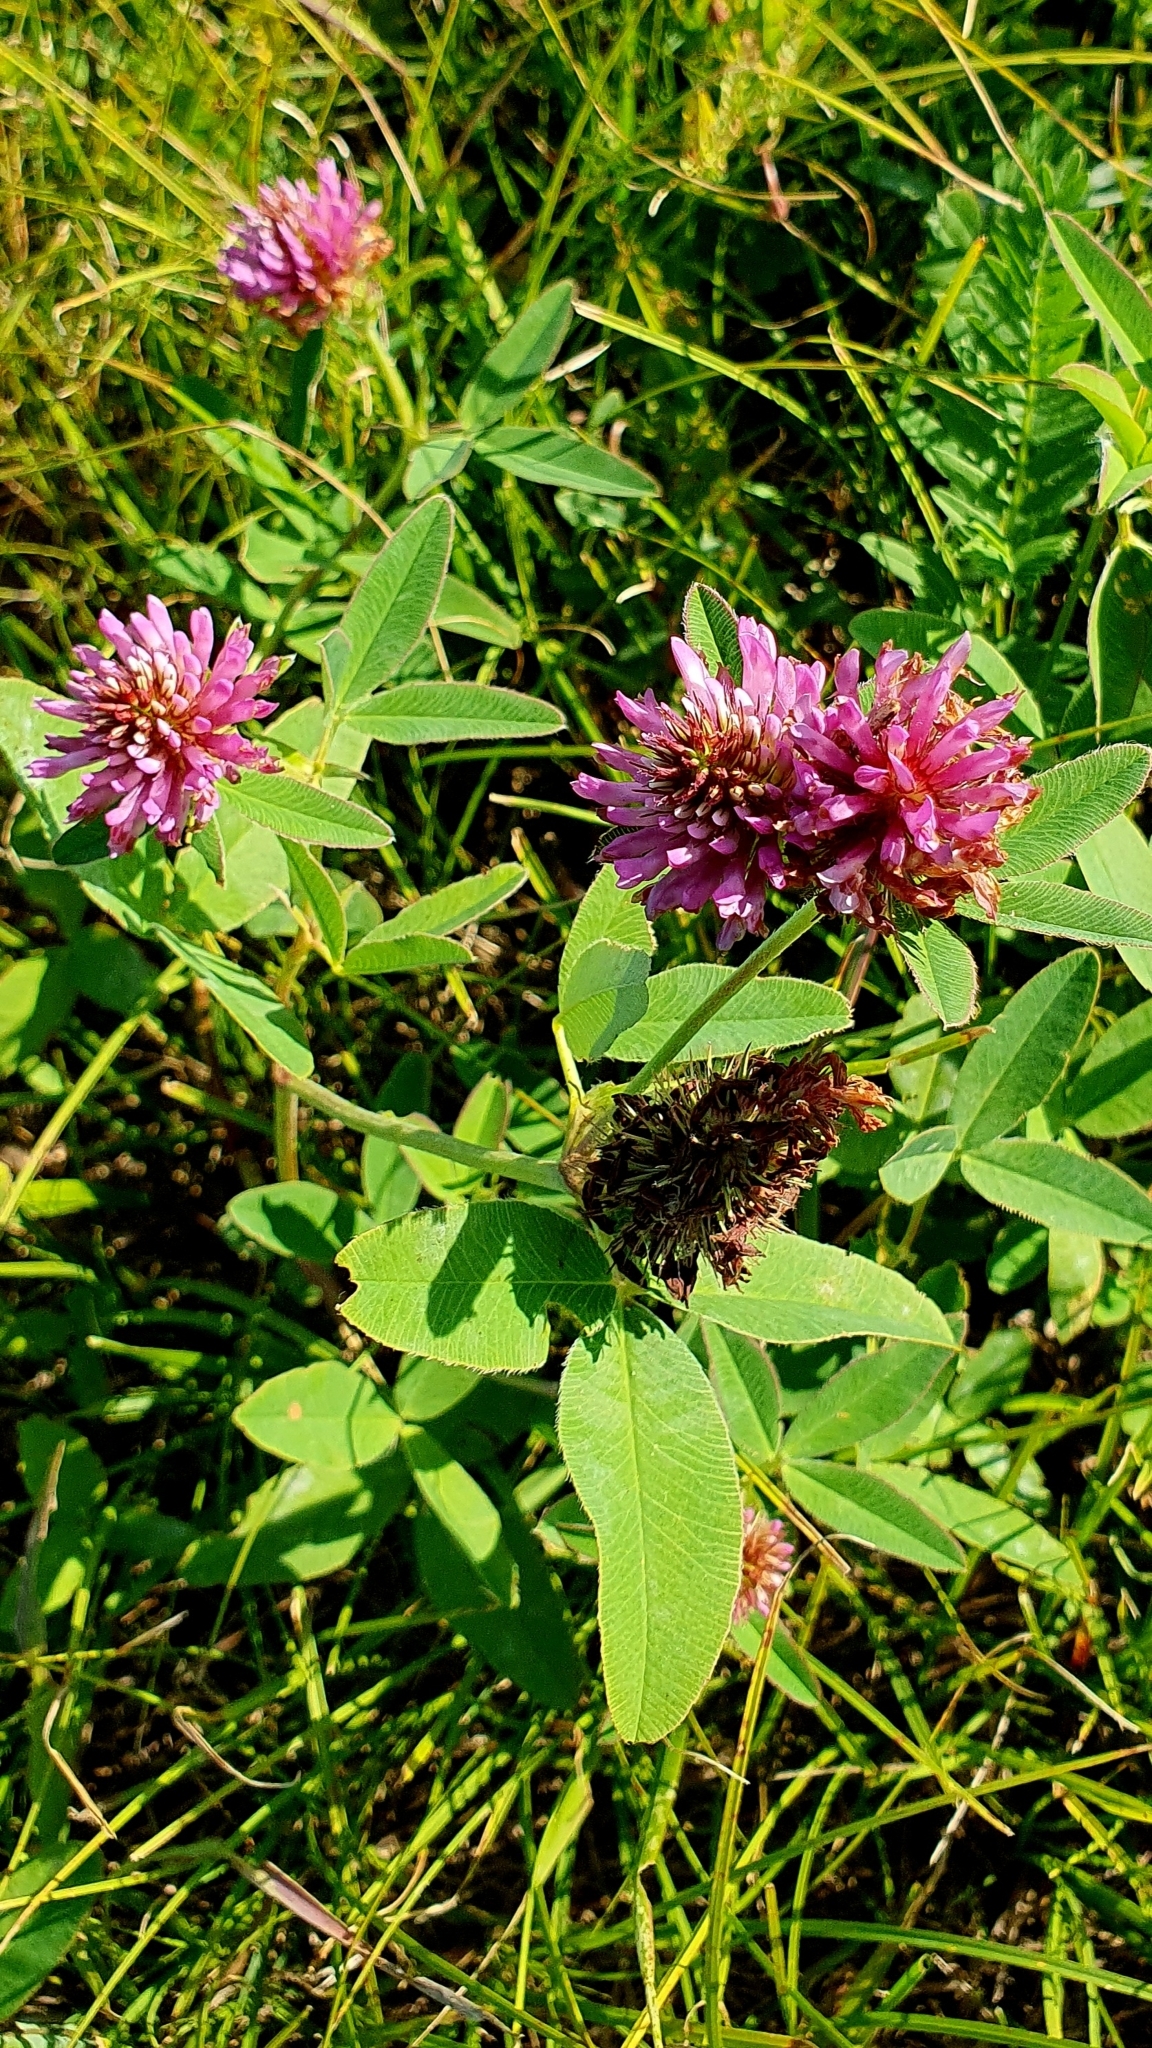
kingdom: Plantae
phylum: Tracheophyta
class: Magnoliopsida
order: Fabales
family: Fabaceae
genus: Trifolium
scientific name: Trifolium medium
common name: Zigzag clover
